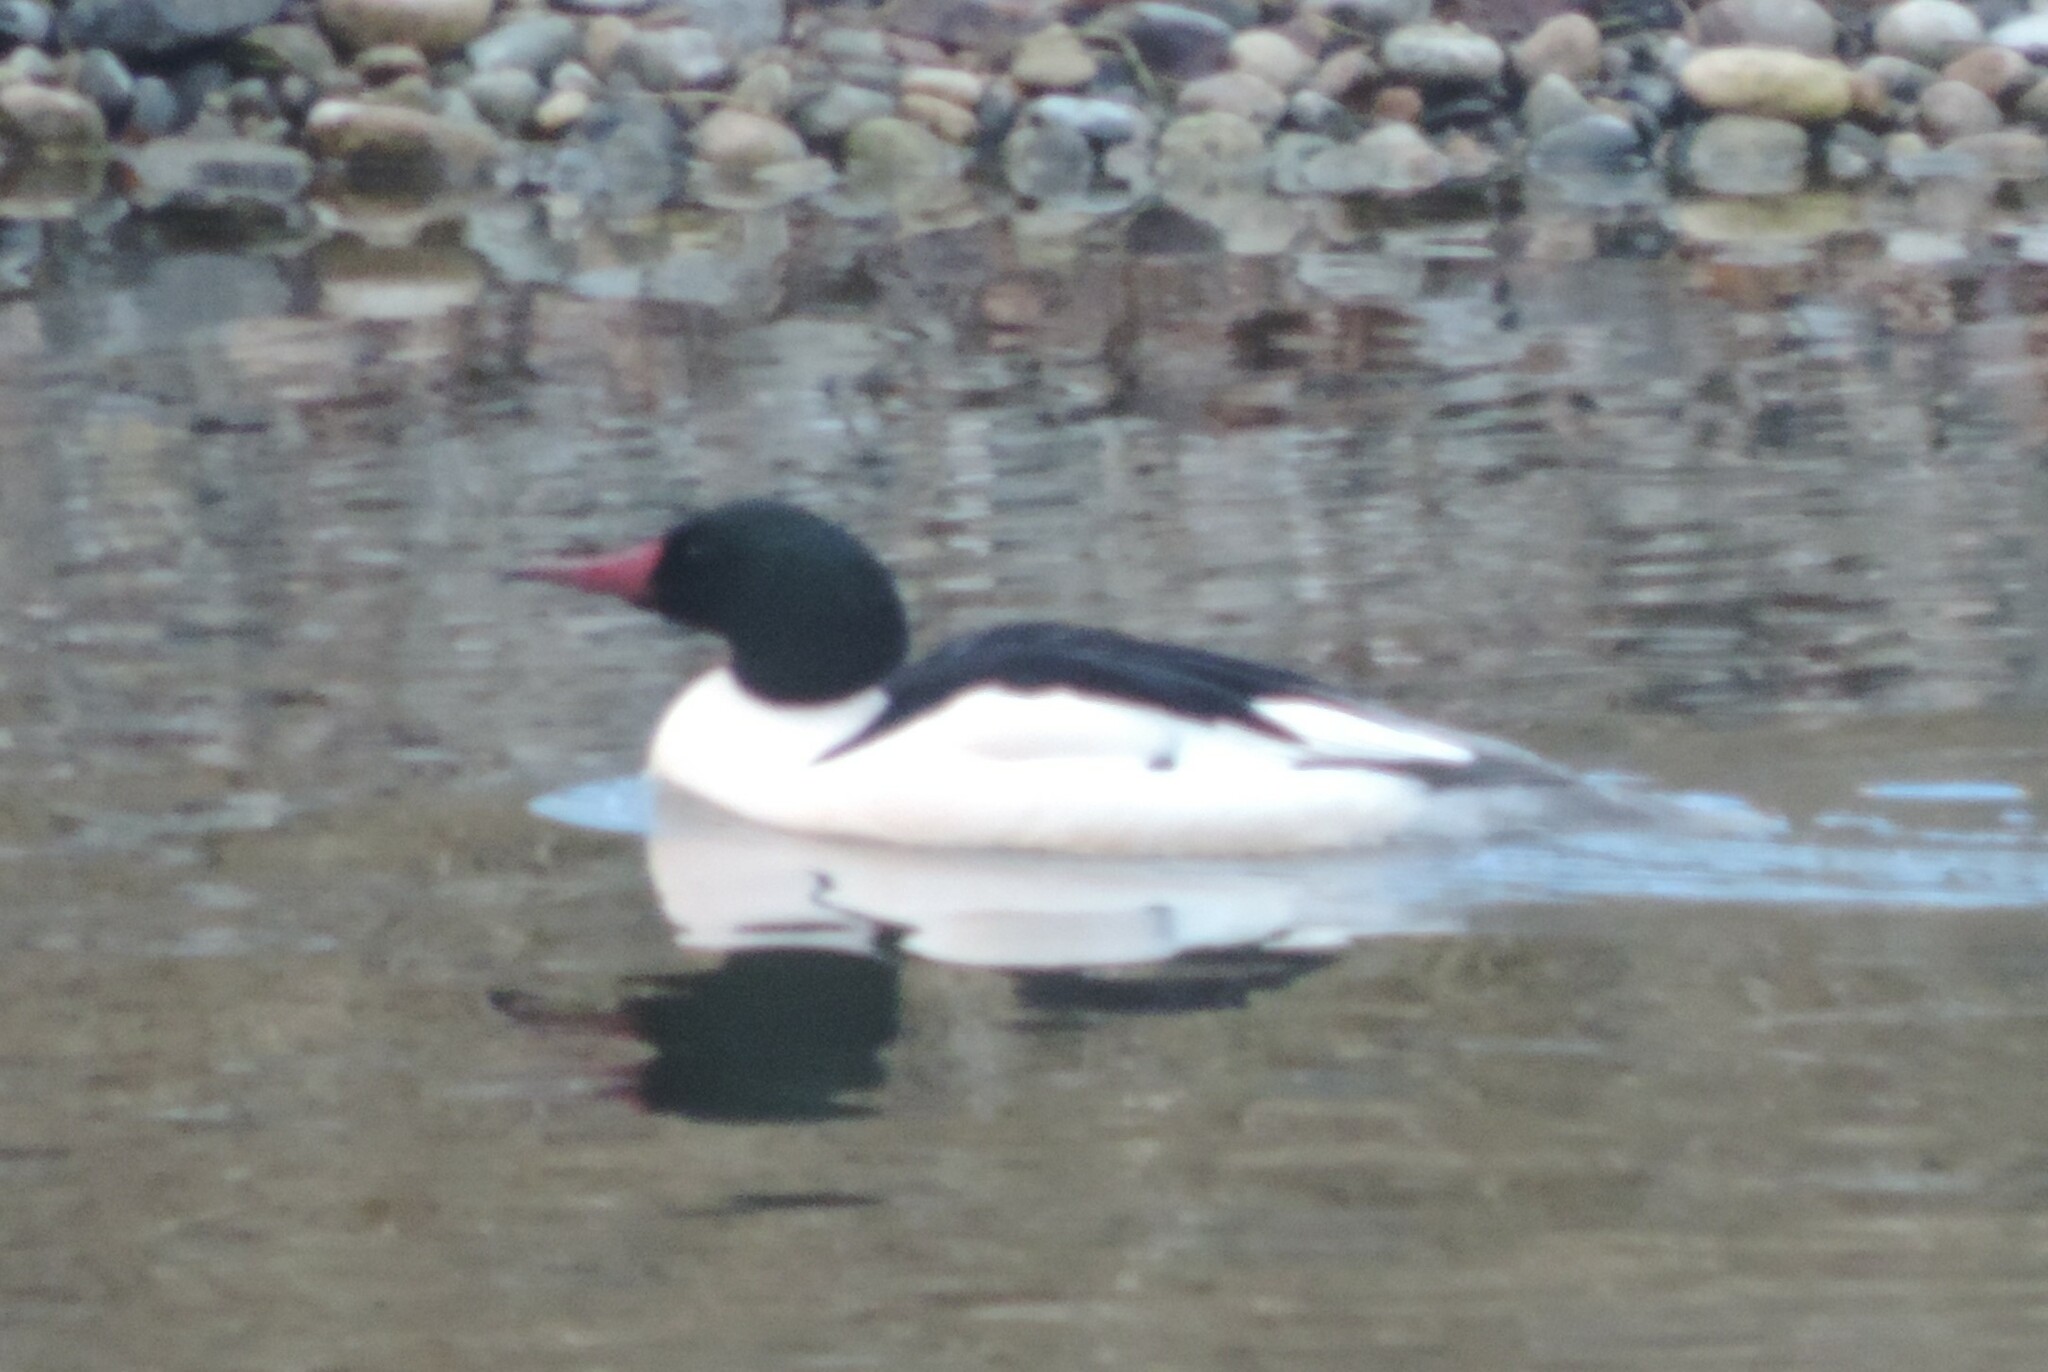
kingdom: Animalia
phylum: Chordata
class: Aves
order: Anseriformes
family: Anatidae
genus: Mergus
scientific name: Mergus merganser
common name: Common merganser
